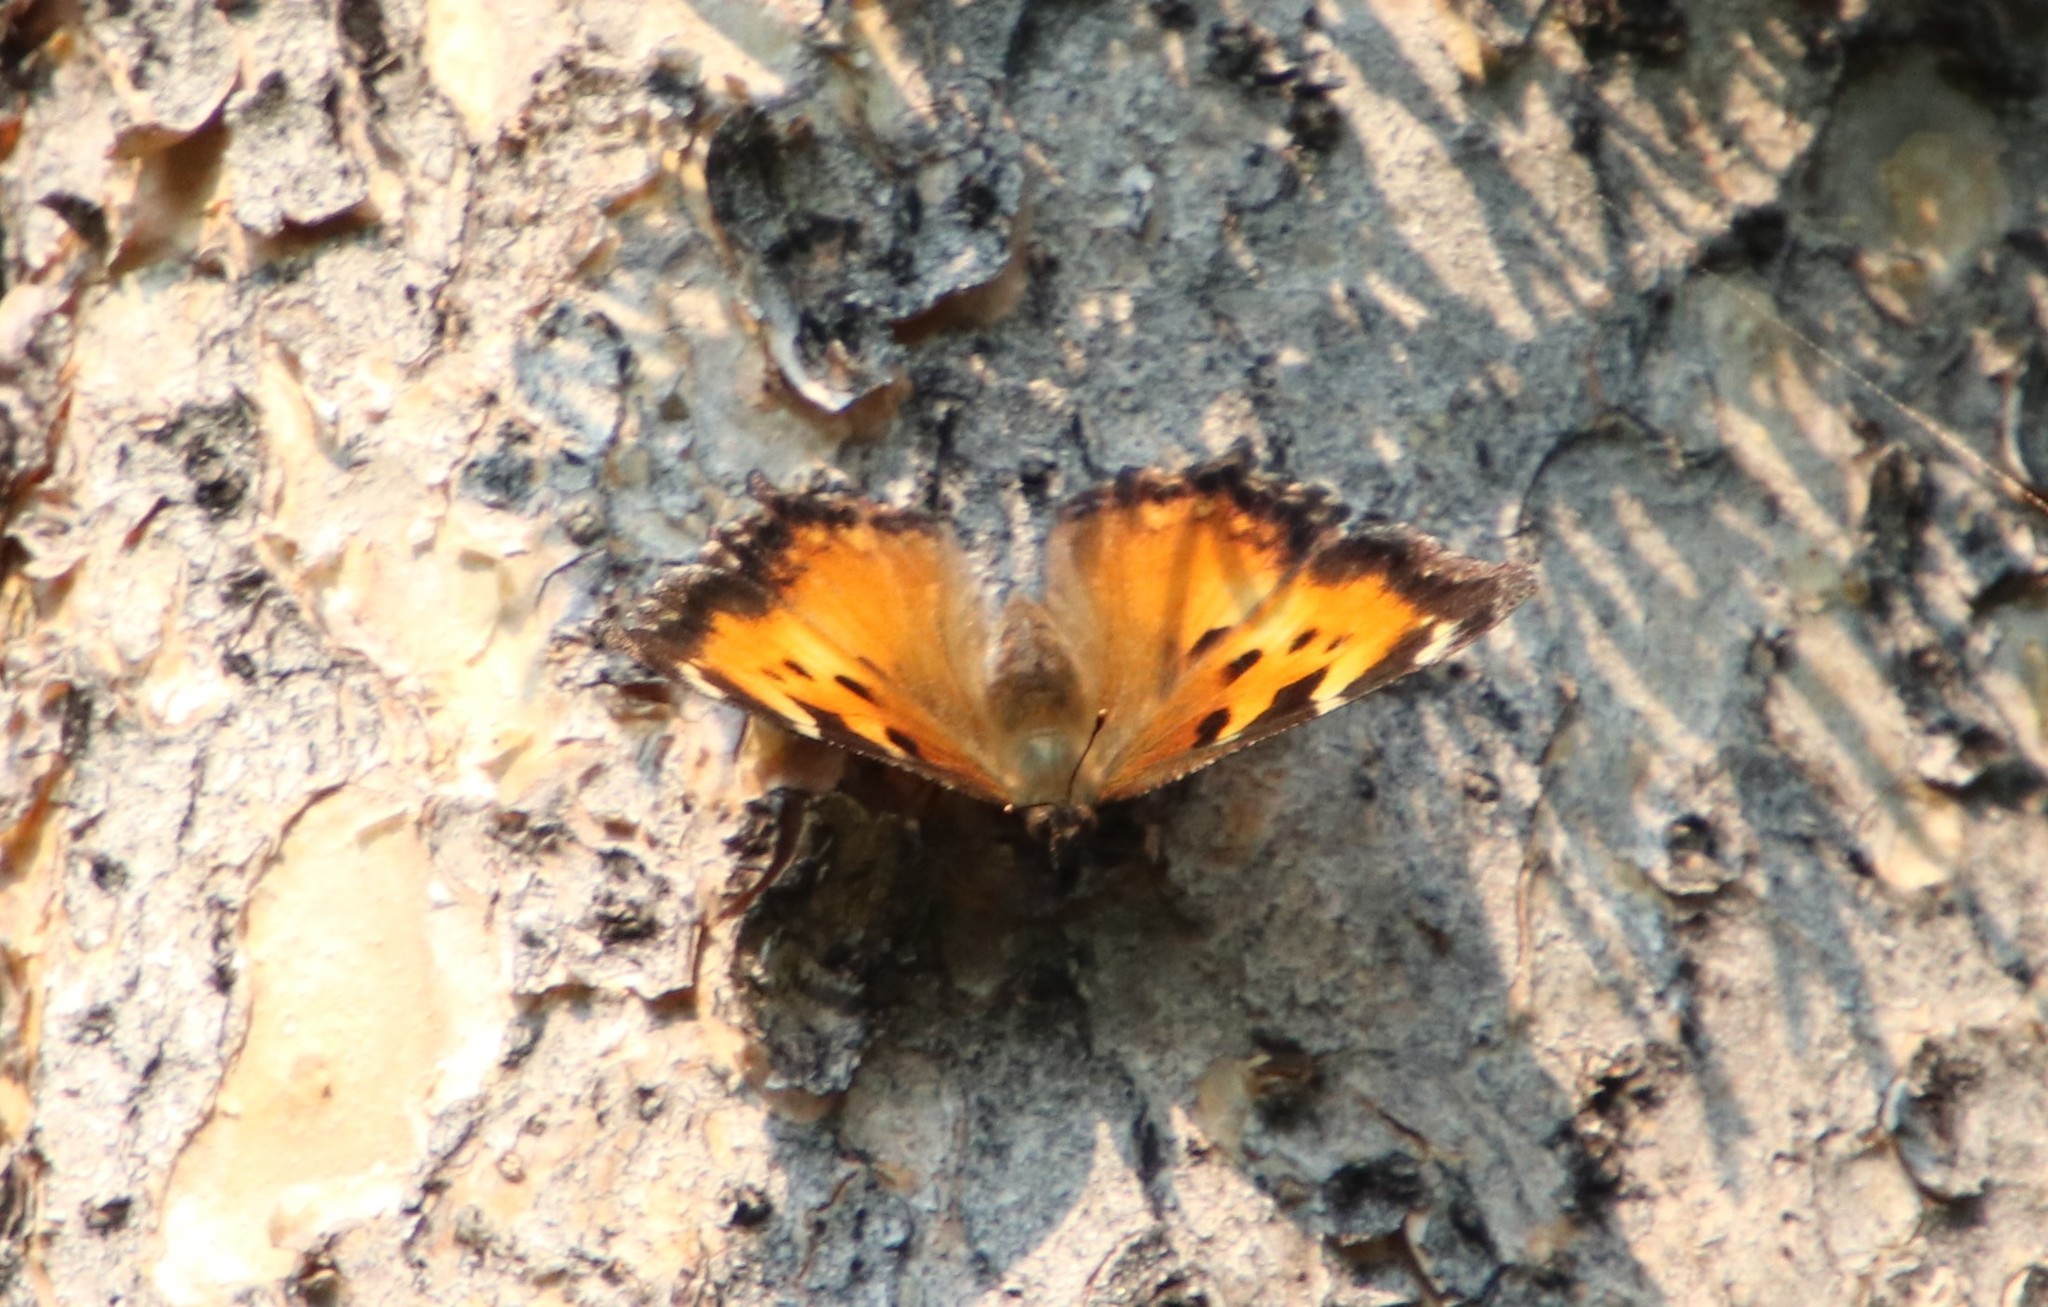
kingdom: Animalia
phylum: Arthropoda
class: Insecta
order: Lepidoptera
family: Nymphalidae
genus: Nymphalis
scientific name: Nymphalis californica
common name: California tortoiseshell
